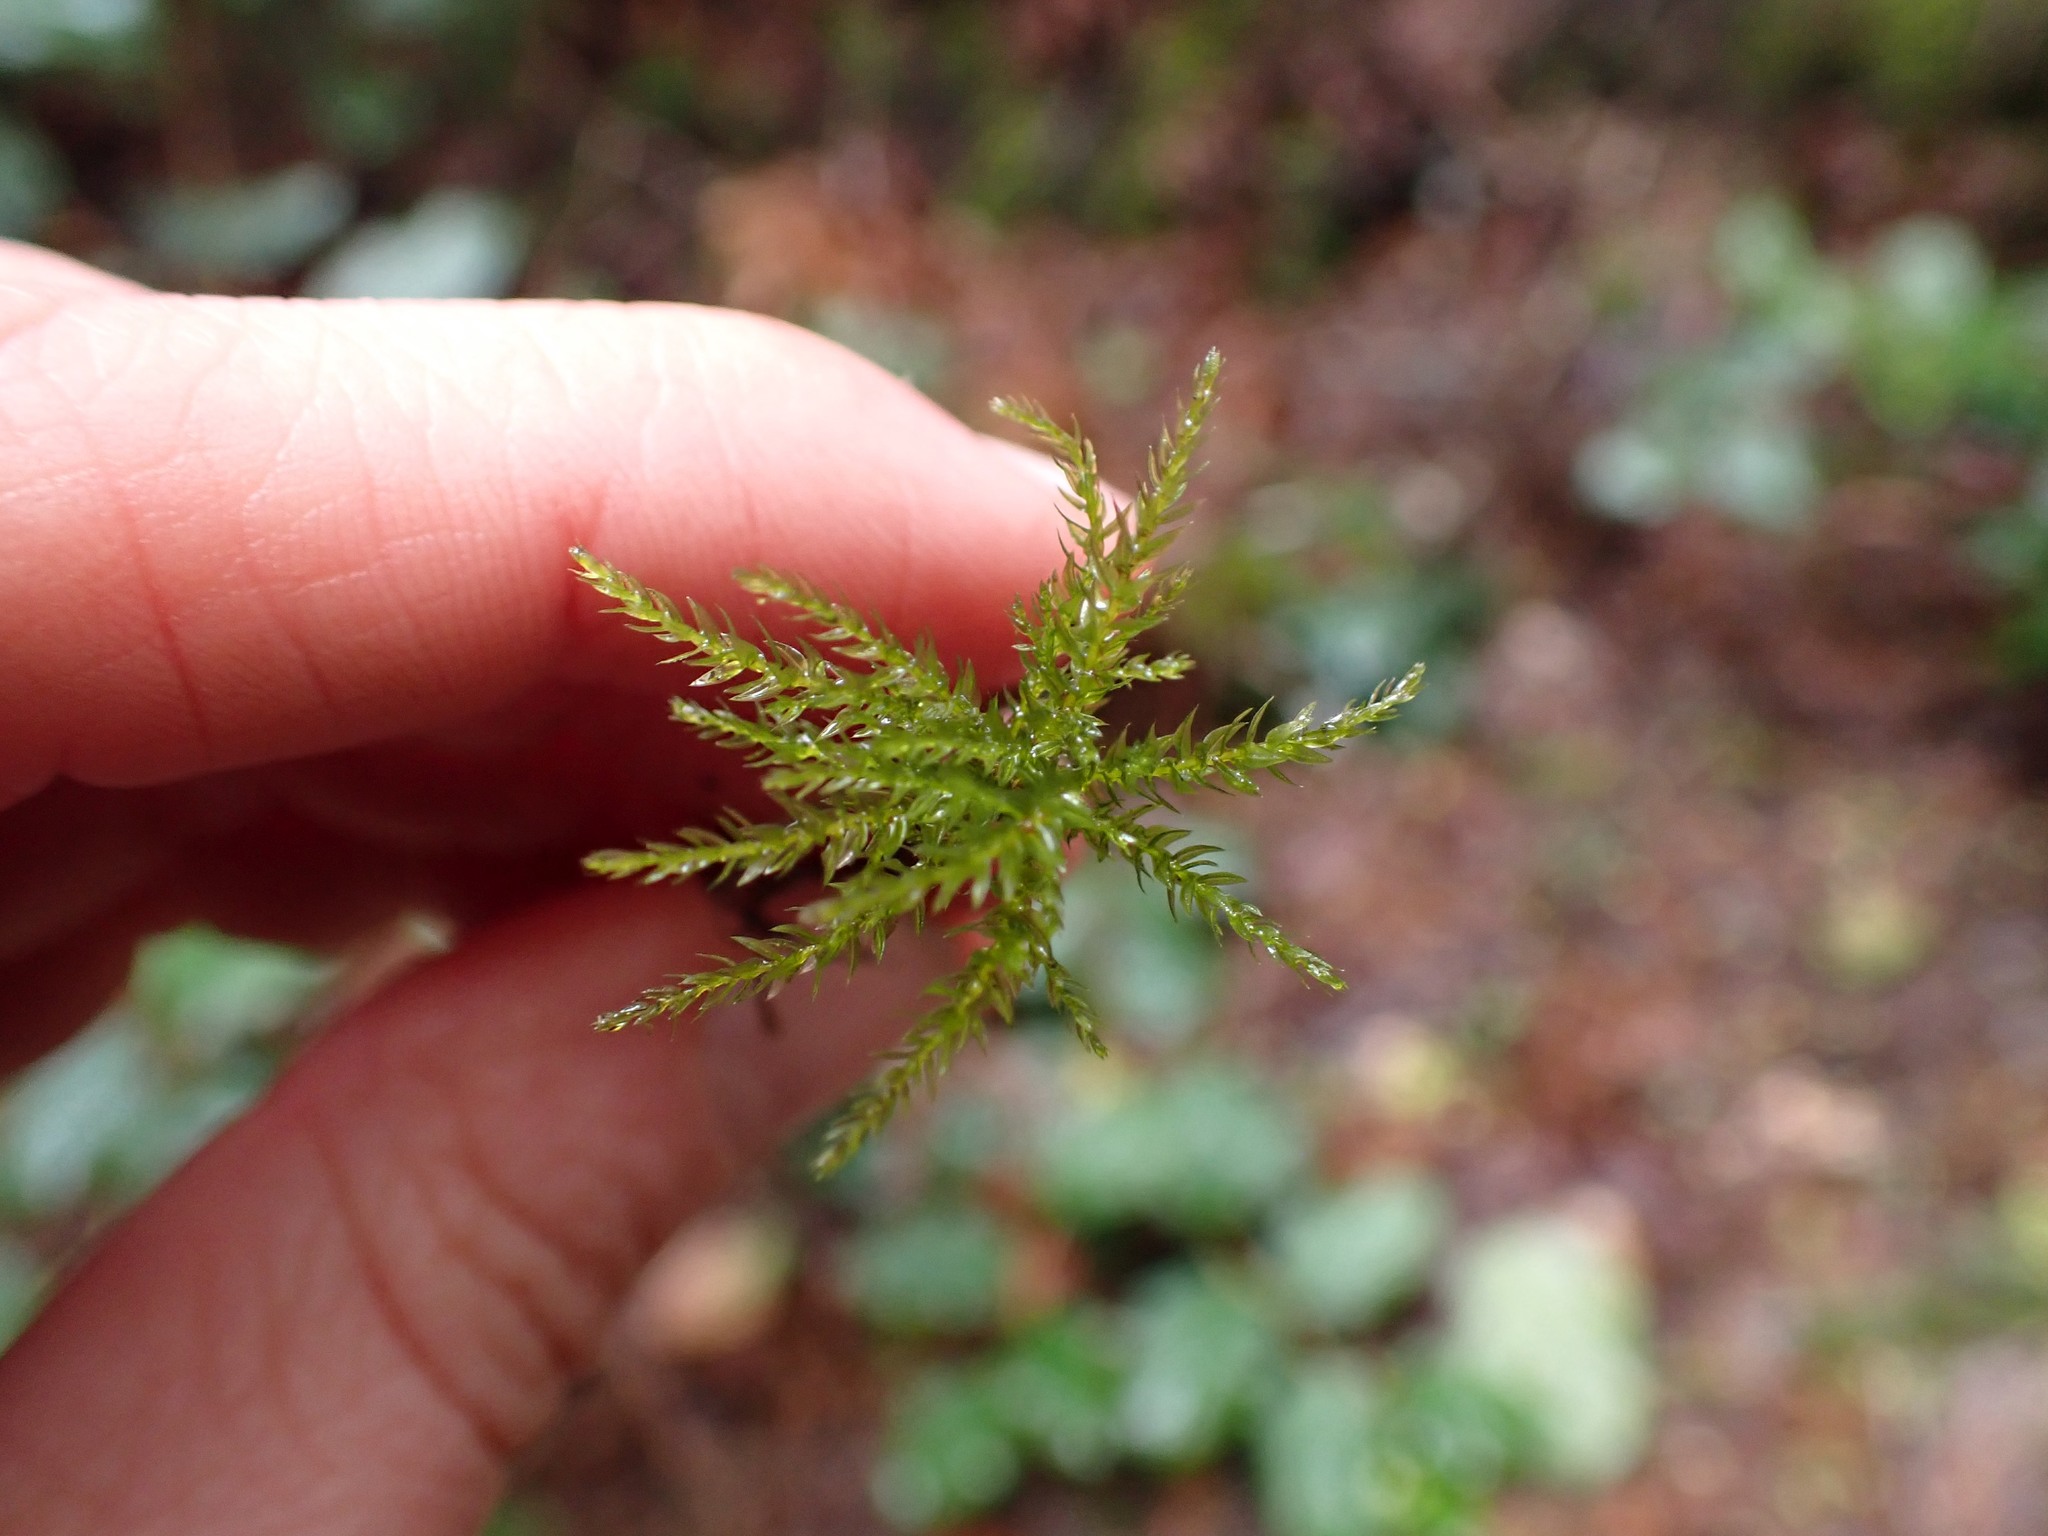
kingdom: Plantae
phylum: Bryophyta
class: Bryopsida
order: Bryales
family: Mniaceae
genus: Leucolepis
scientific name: Leucolepis acanthoneura
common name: Leucolepis umbrella moss
